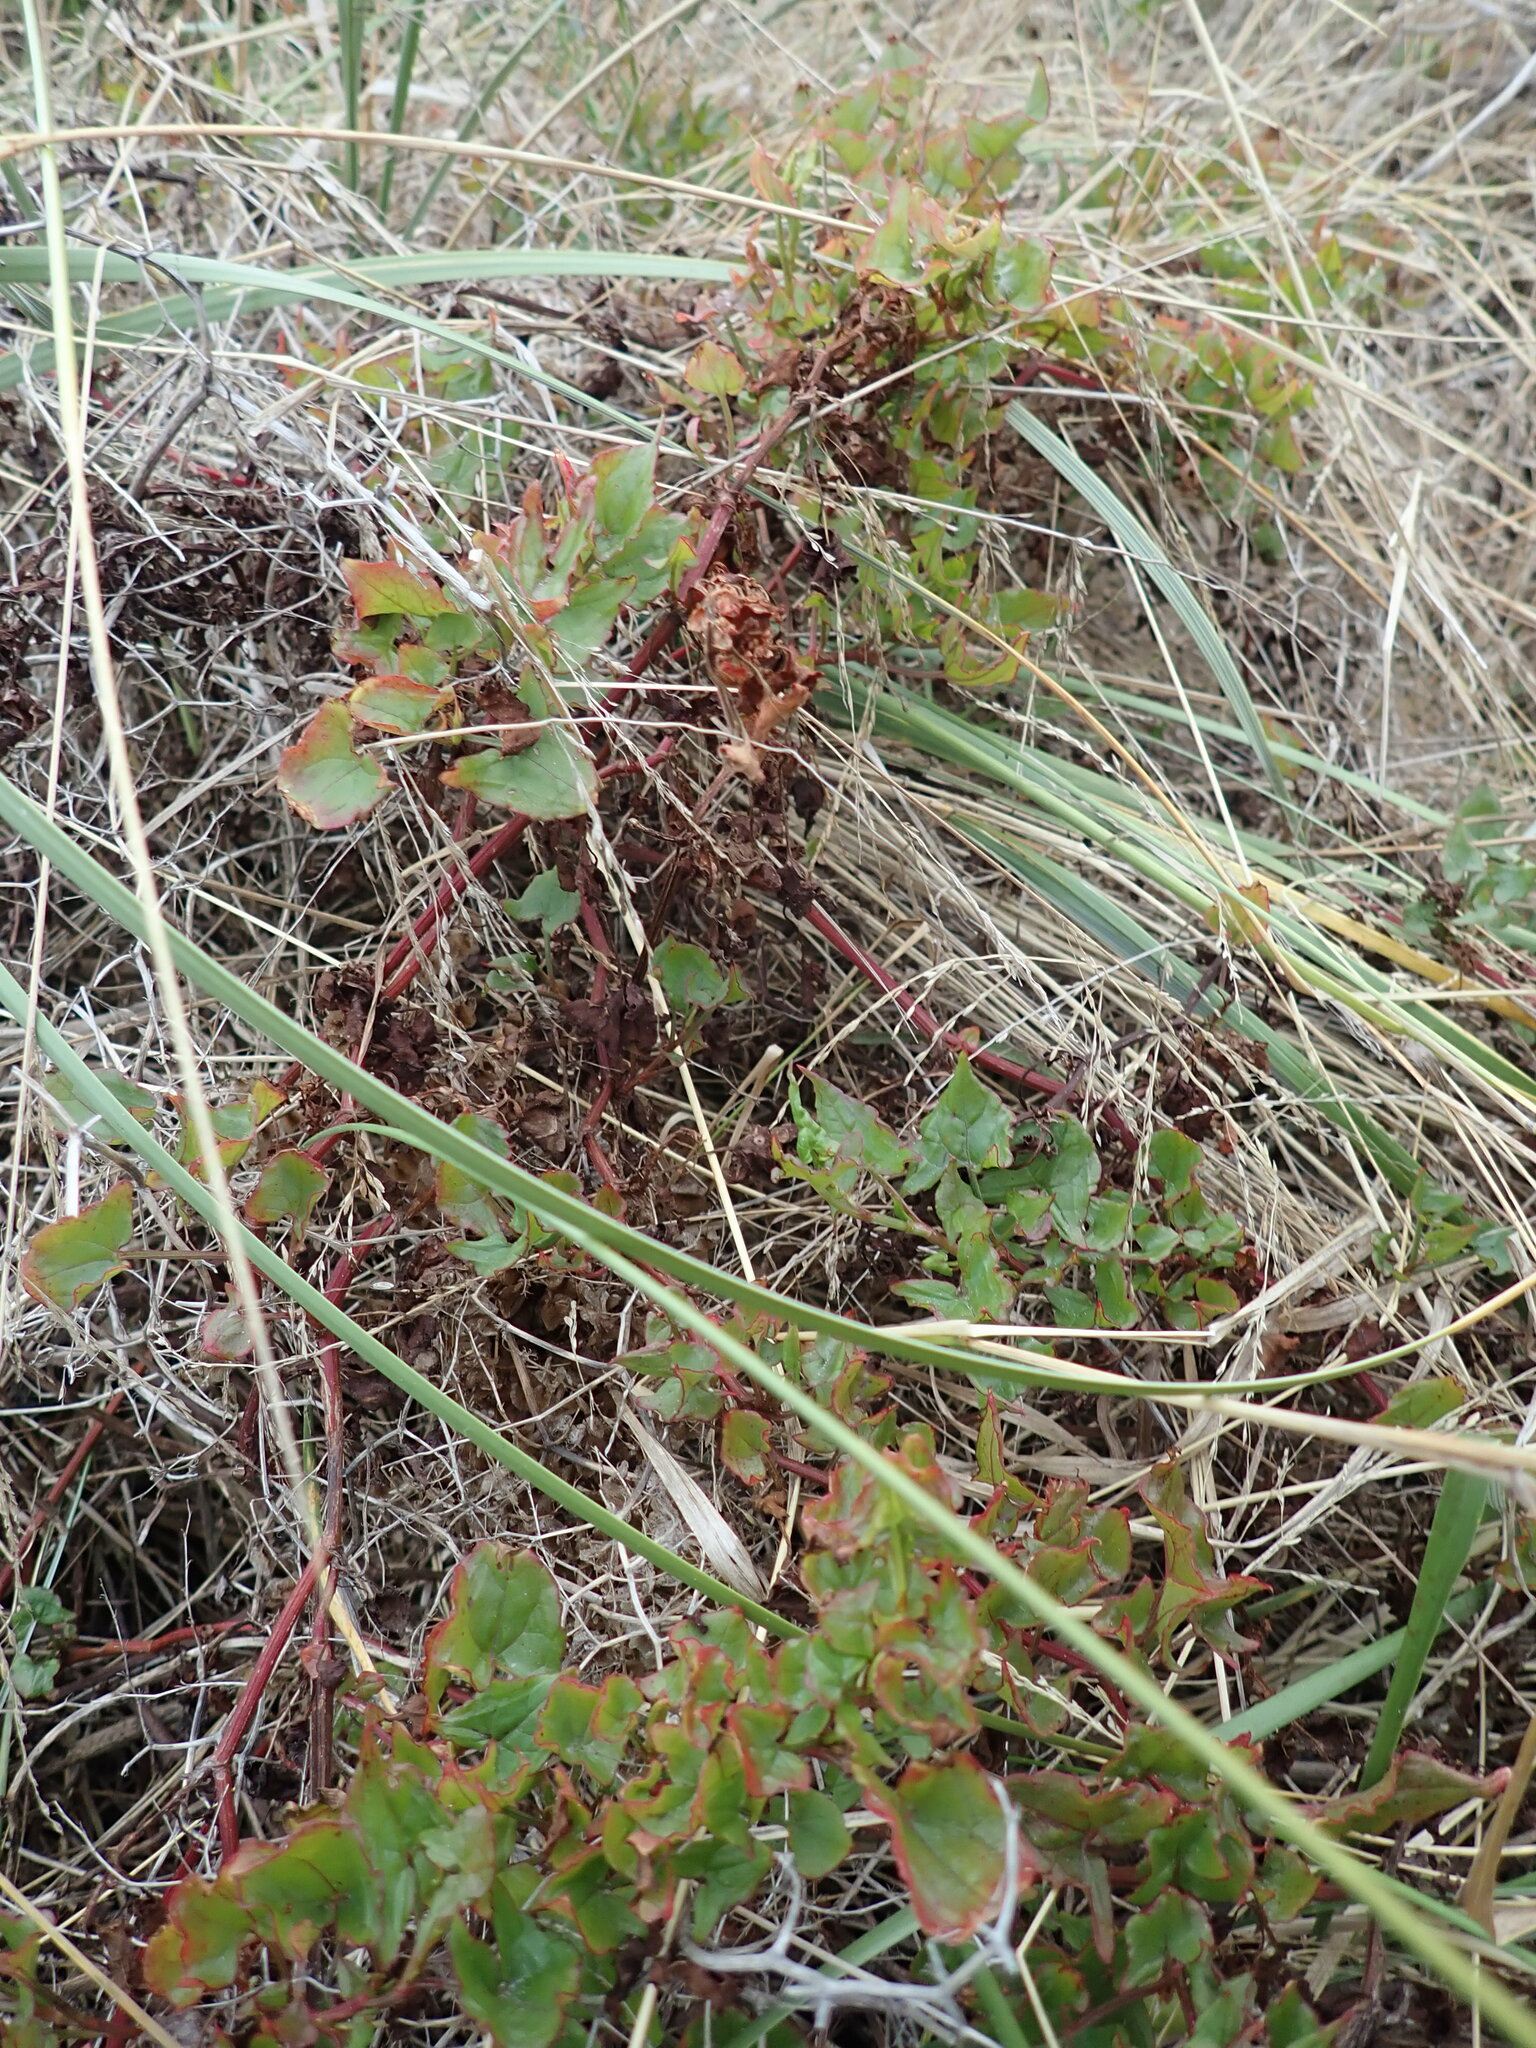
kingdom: Plantae
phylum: Tracheophyta
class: Magnoliopsida
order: Caryophyllales
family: Polygonaceae
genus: Rumex
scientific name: Rumex sagittatus
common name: Climbing dock
